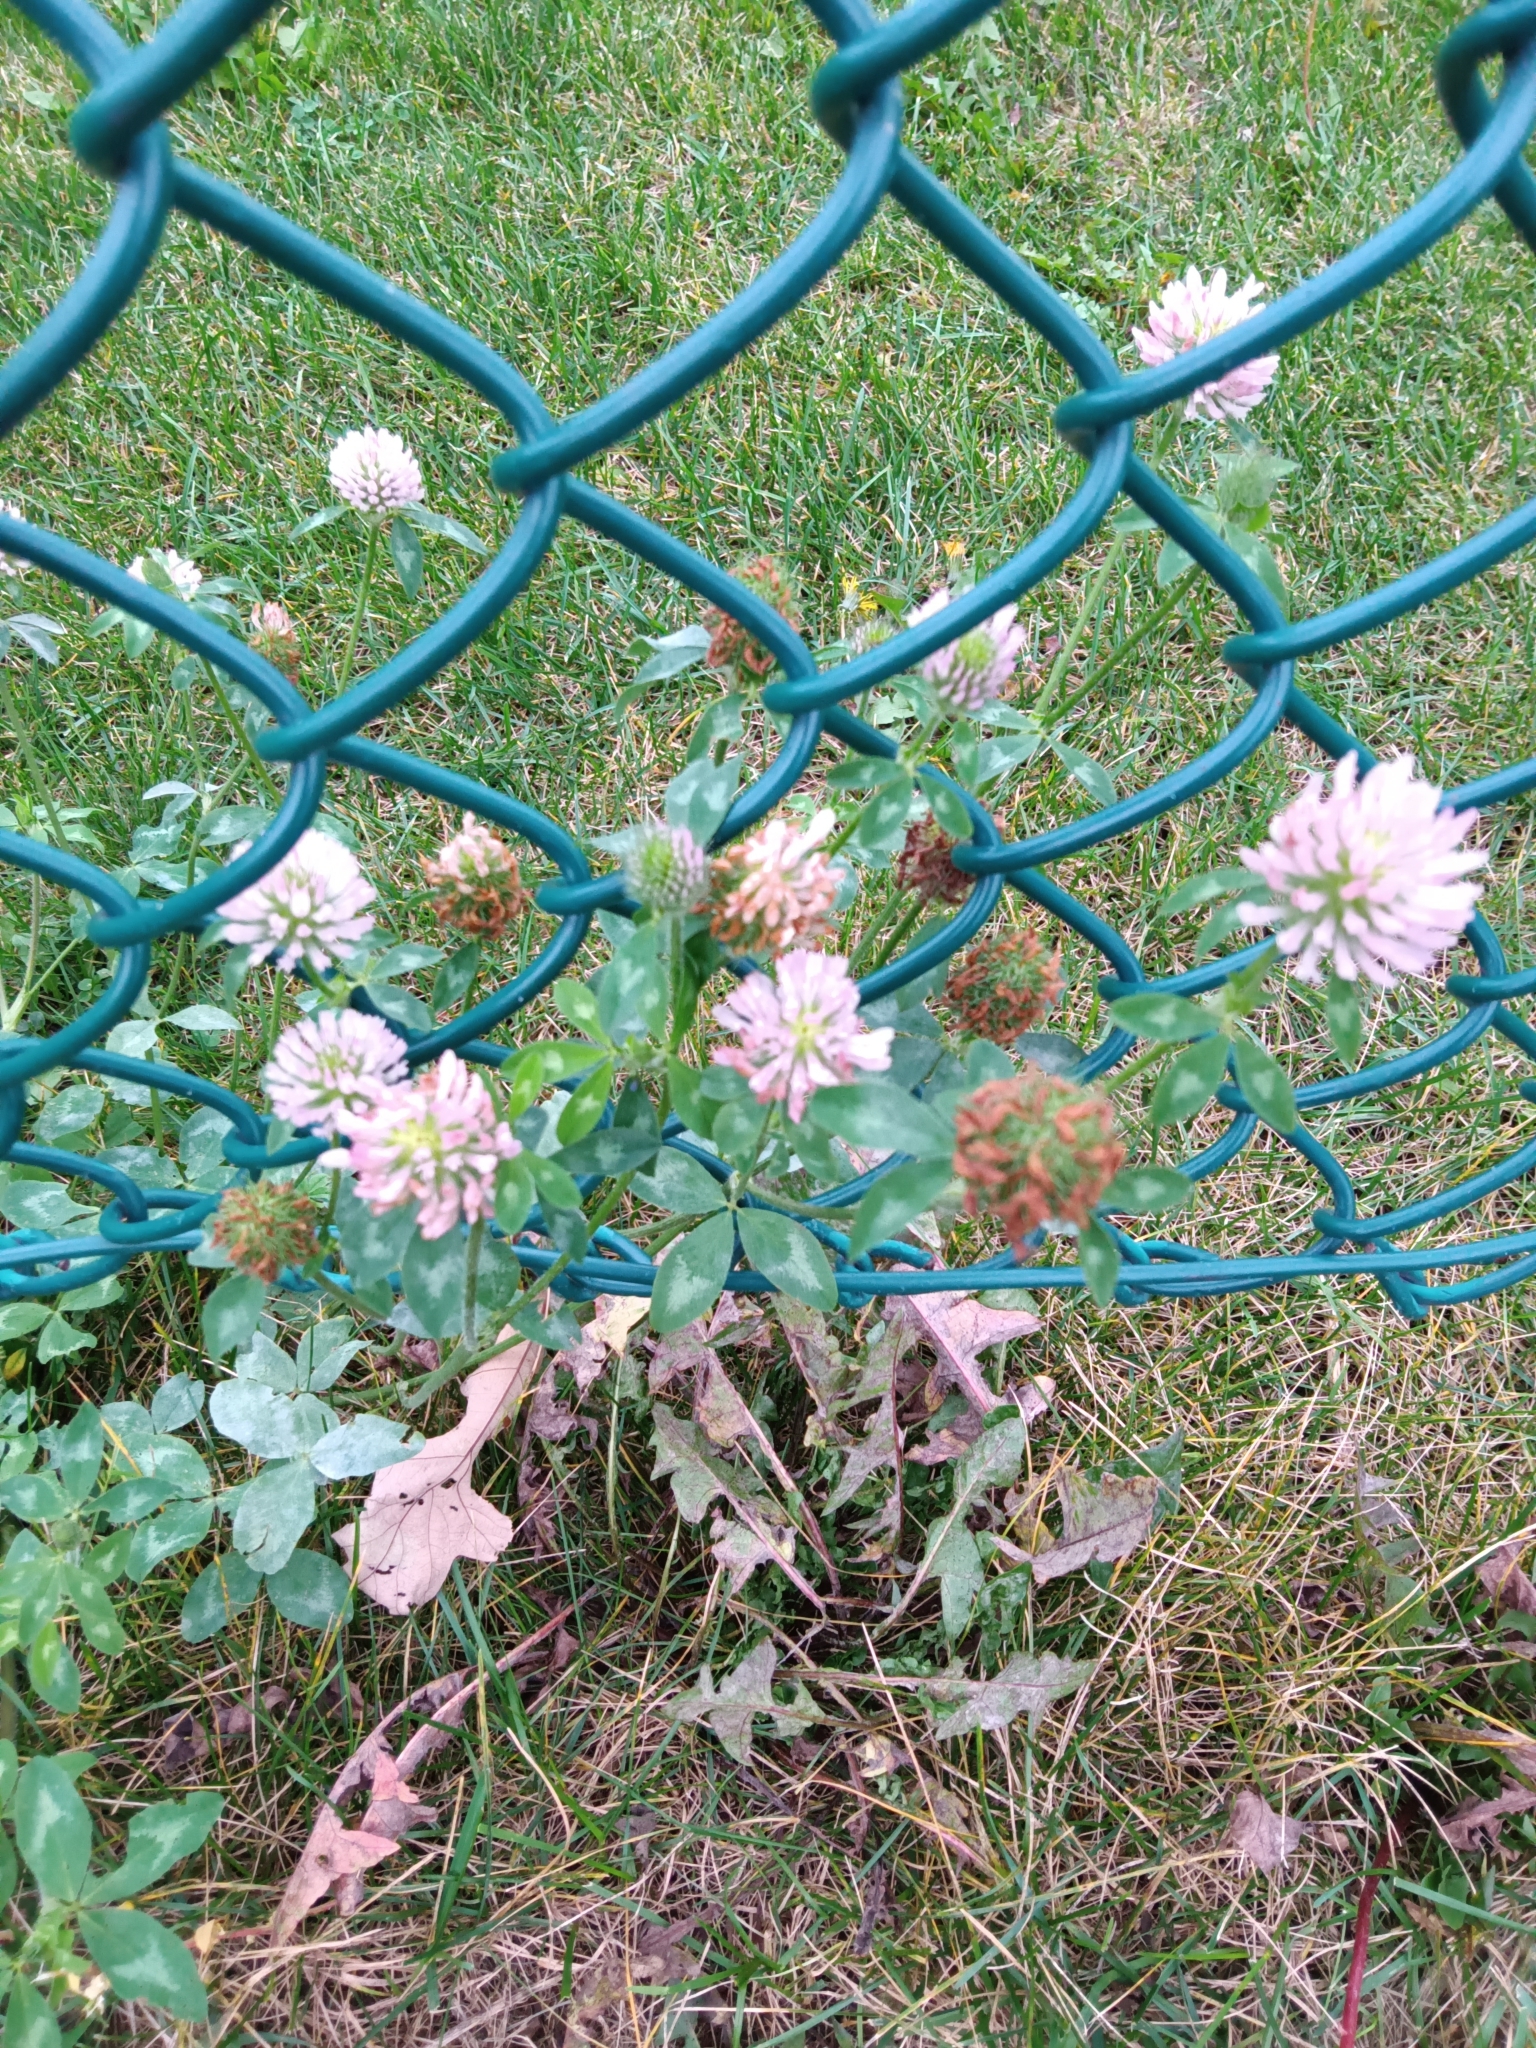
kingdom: Plantae
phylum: Tracheophyta
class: Magnoliopsida
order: Fabales
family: Fabaceae
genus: Trifolium
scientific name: Trifolium pratense
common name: Red clover
